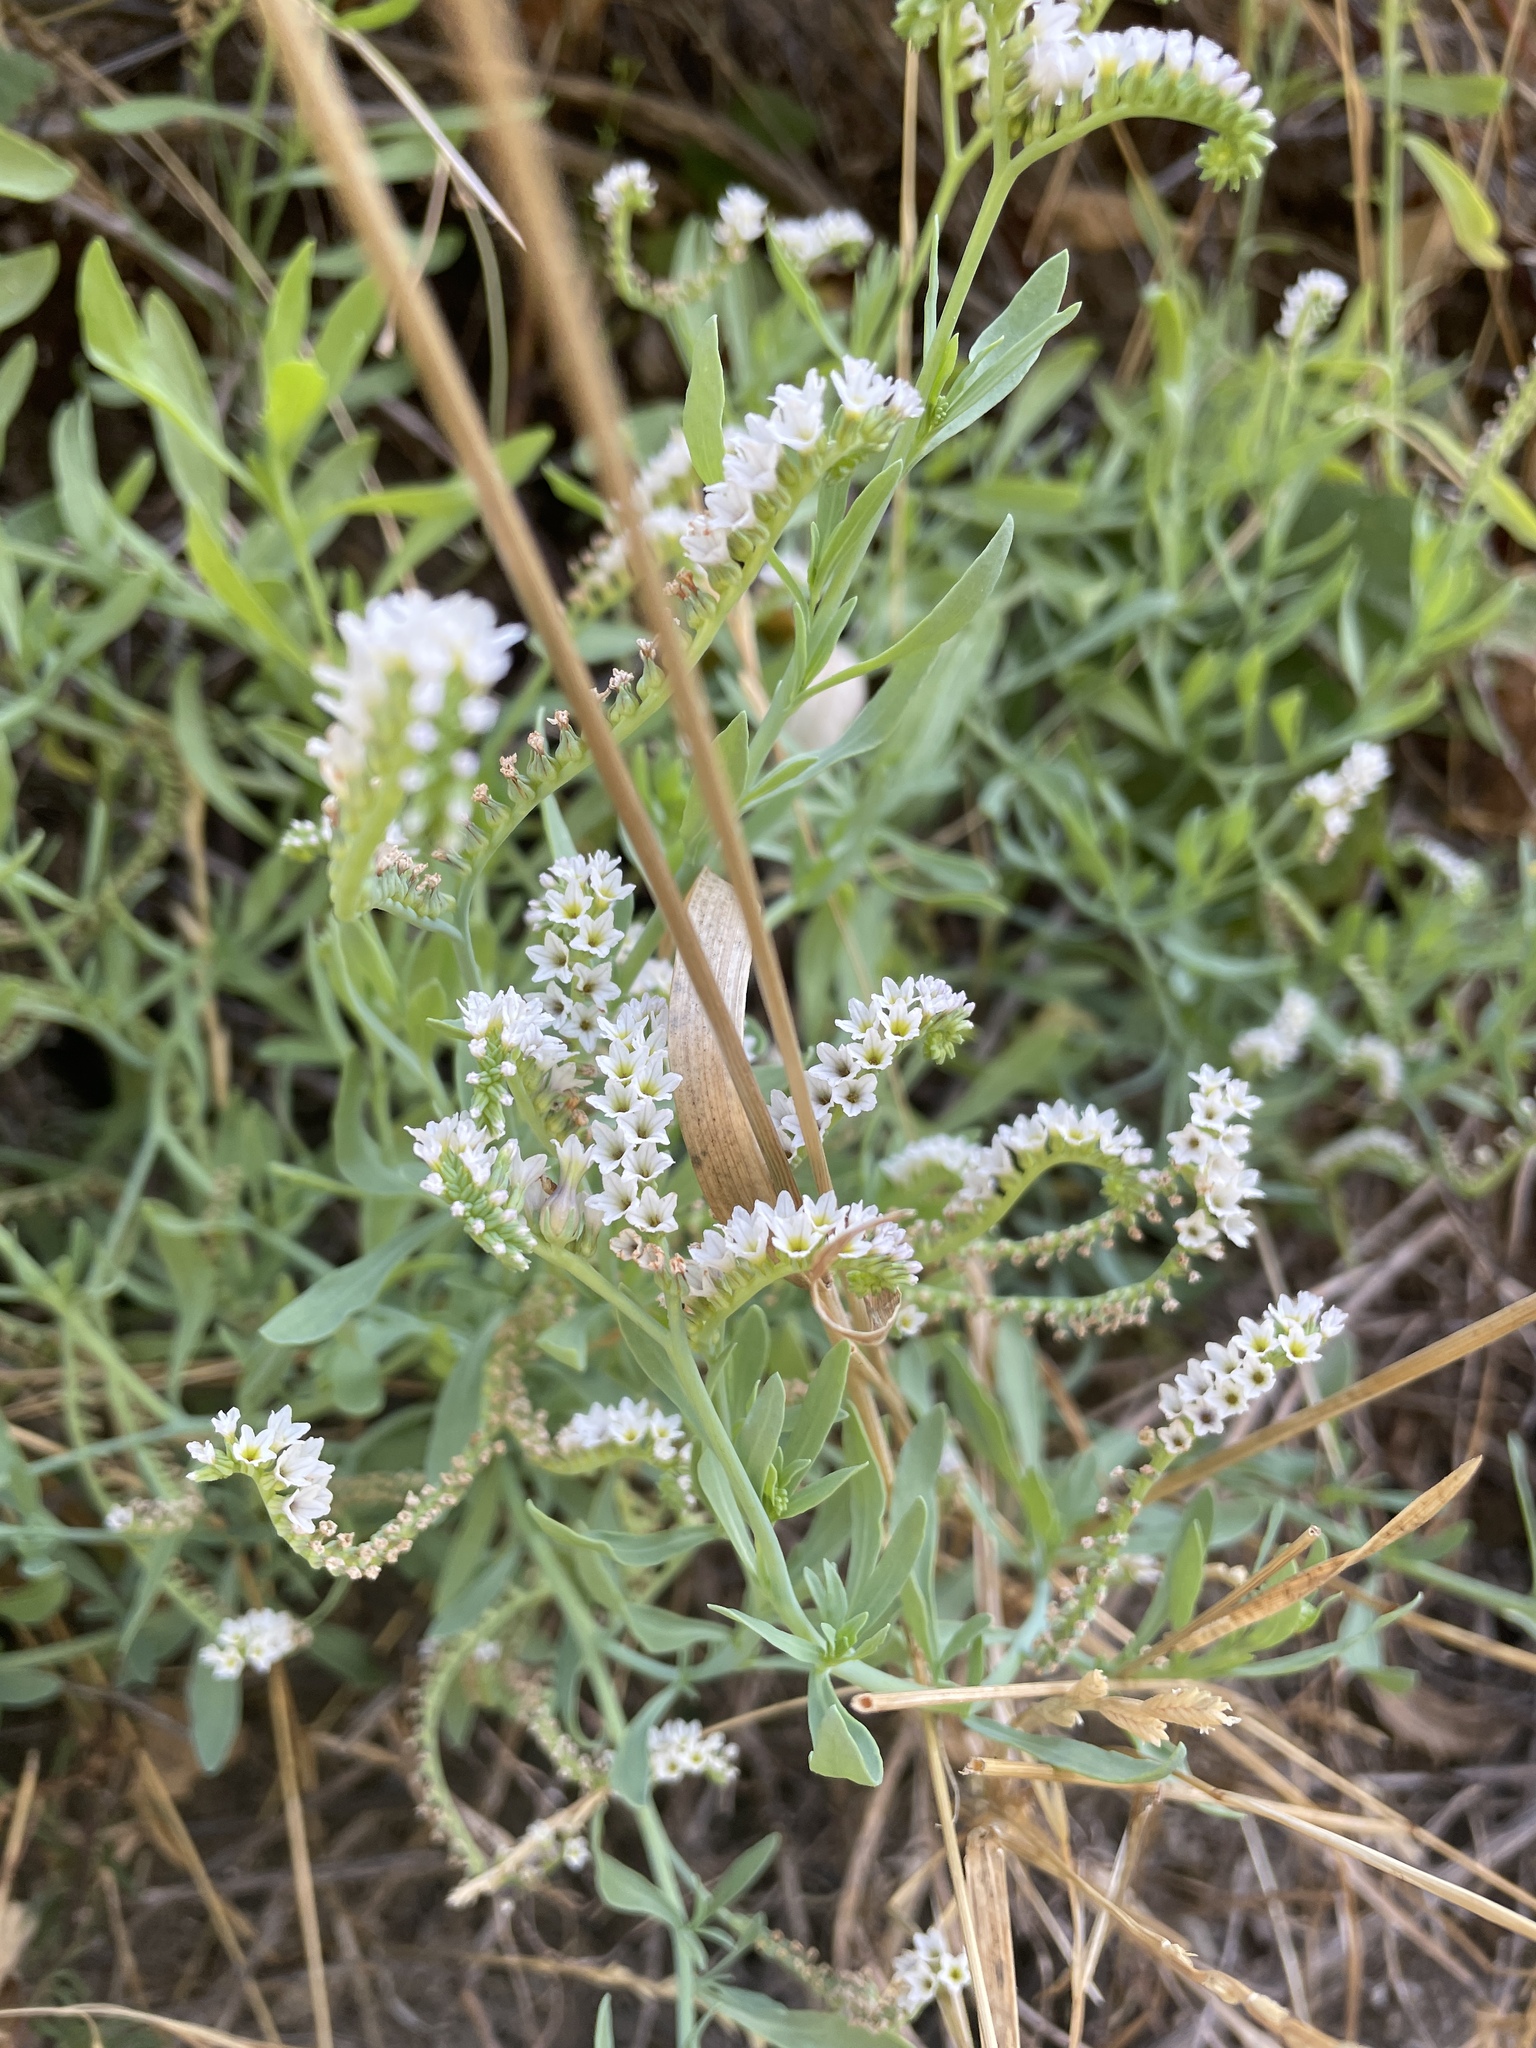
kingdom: Plantae
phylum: Tracheophyta
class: Magnoliopsida
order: Boraginales
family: Heliotropiaceae
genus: Heliotropium
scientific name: Heliotropium curassavicum
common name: Seaside heliotrope
